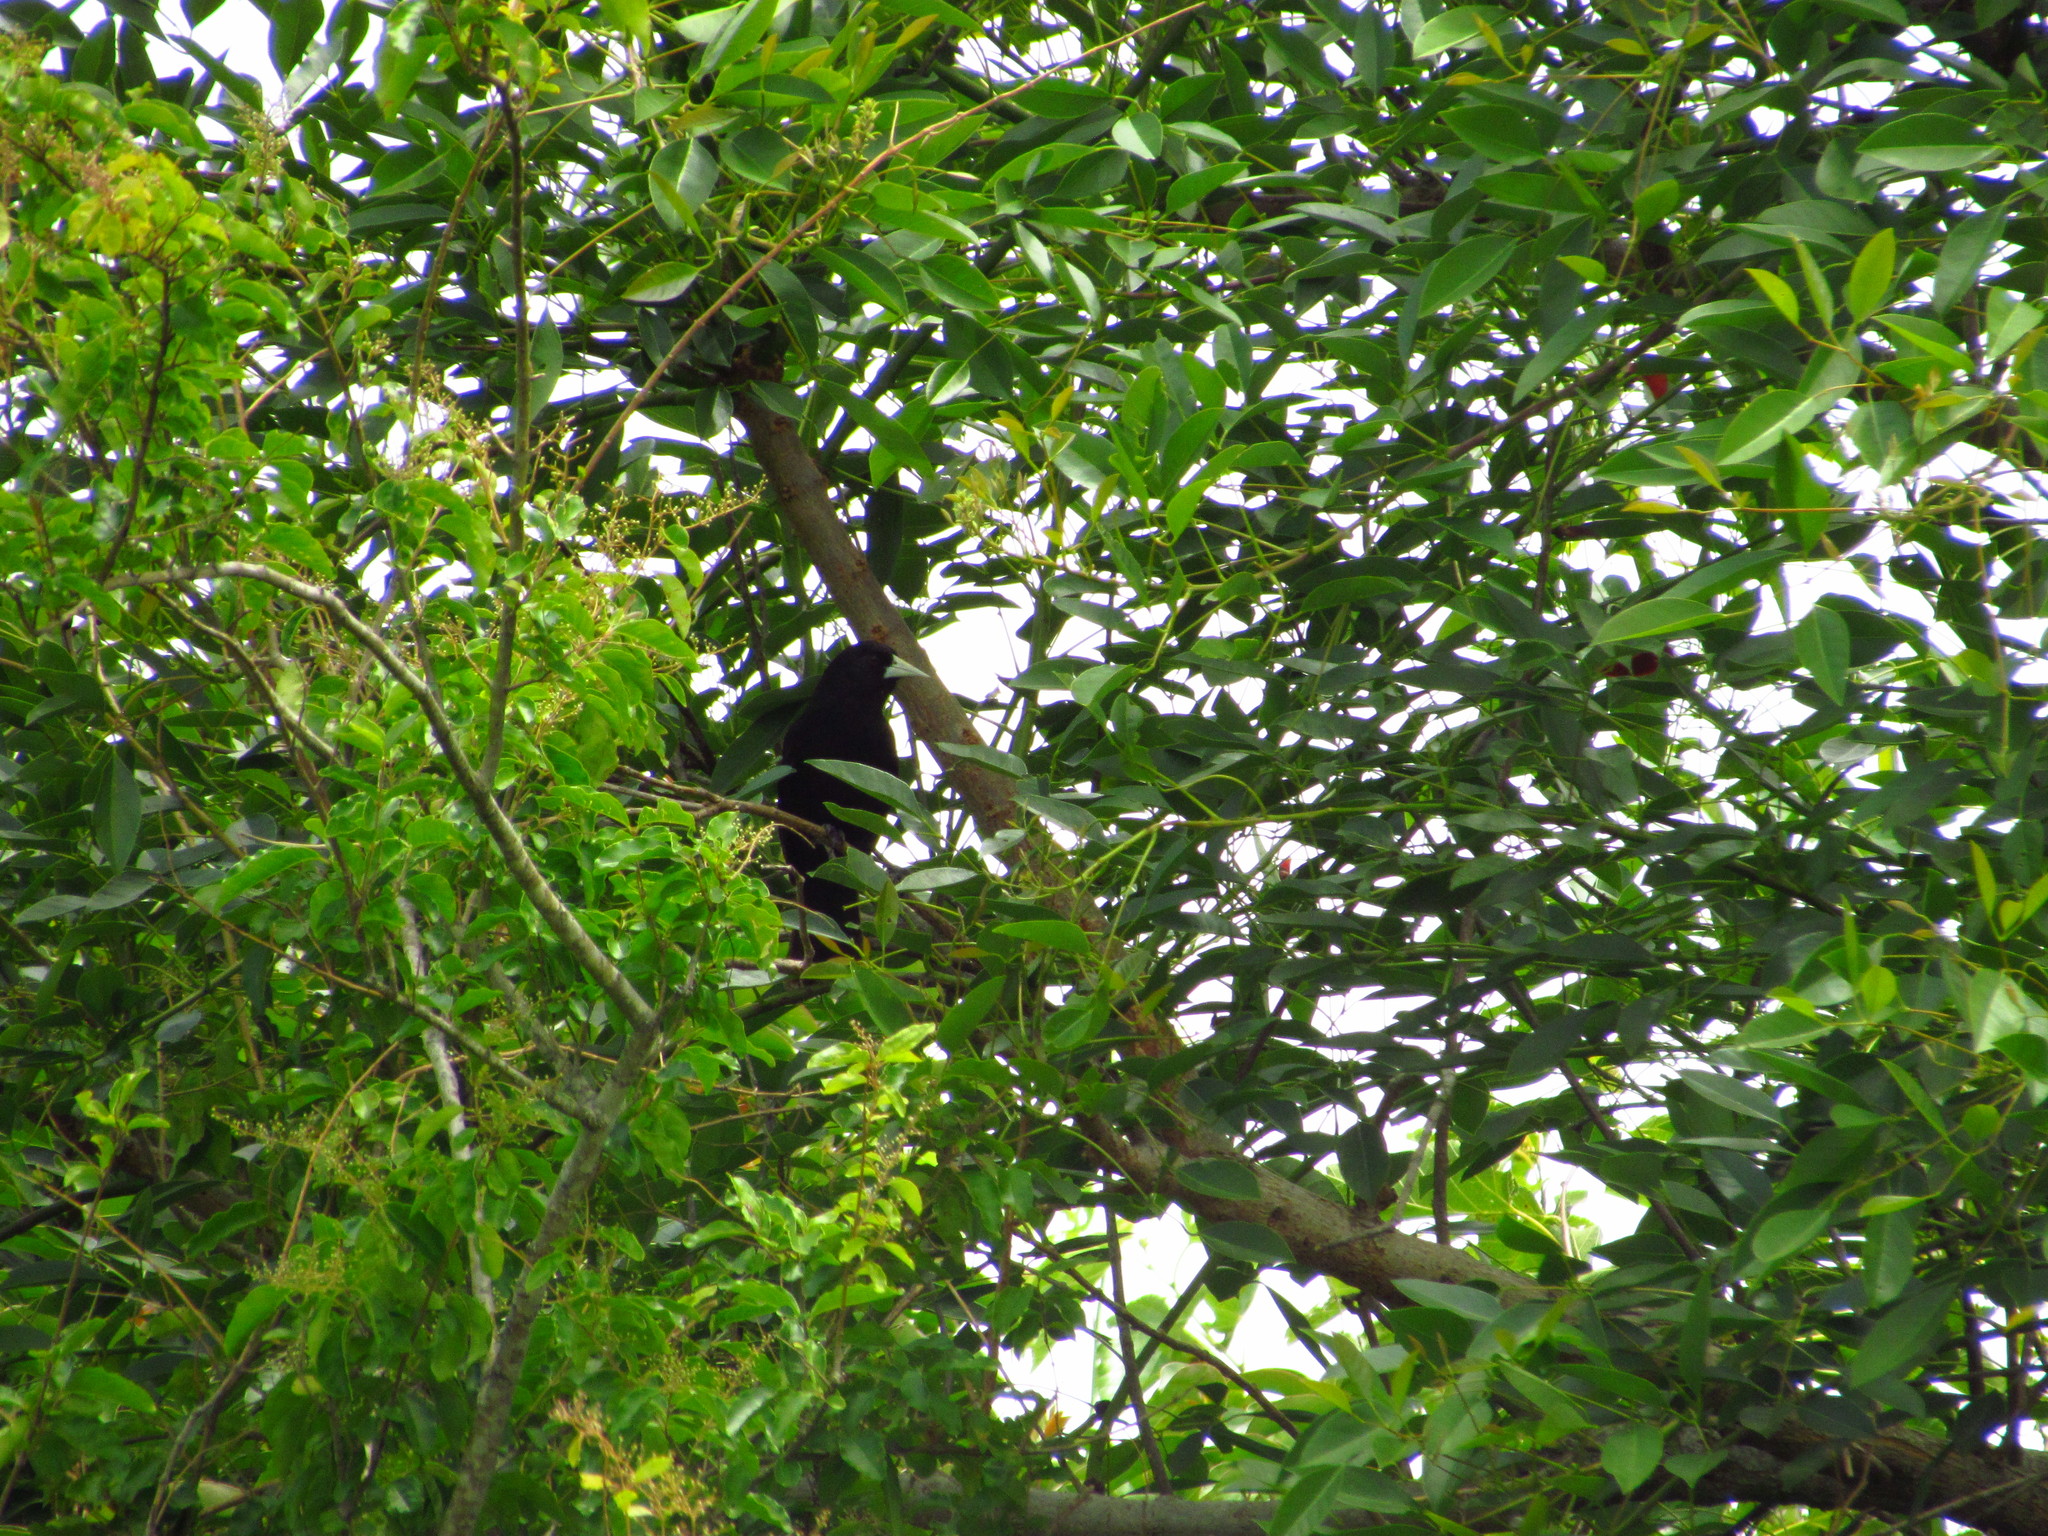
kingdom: Animalia
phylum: Chordata
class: Aves
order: Passeriformes
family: Icteridae
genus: Cacicus
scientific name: Cacicus solitarius
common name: Solitary cacique
